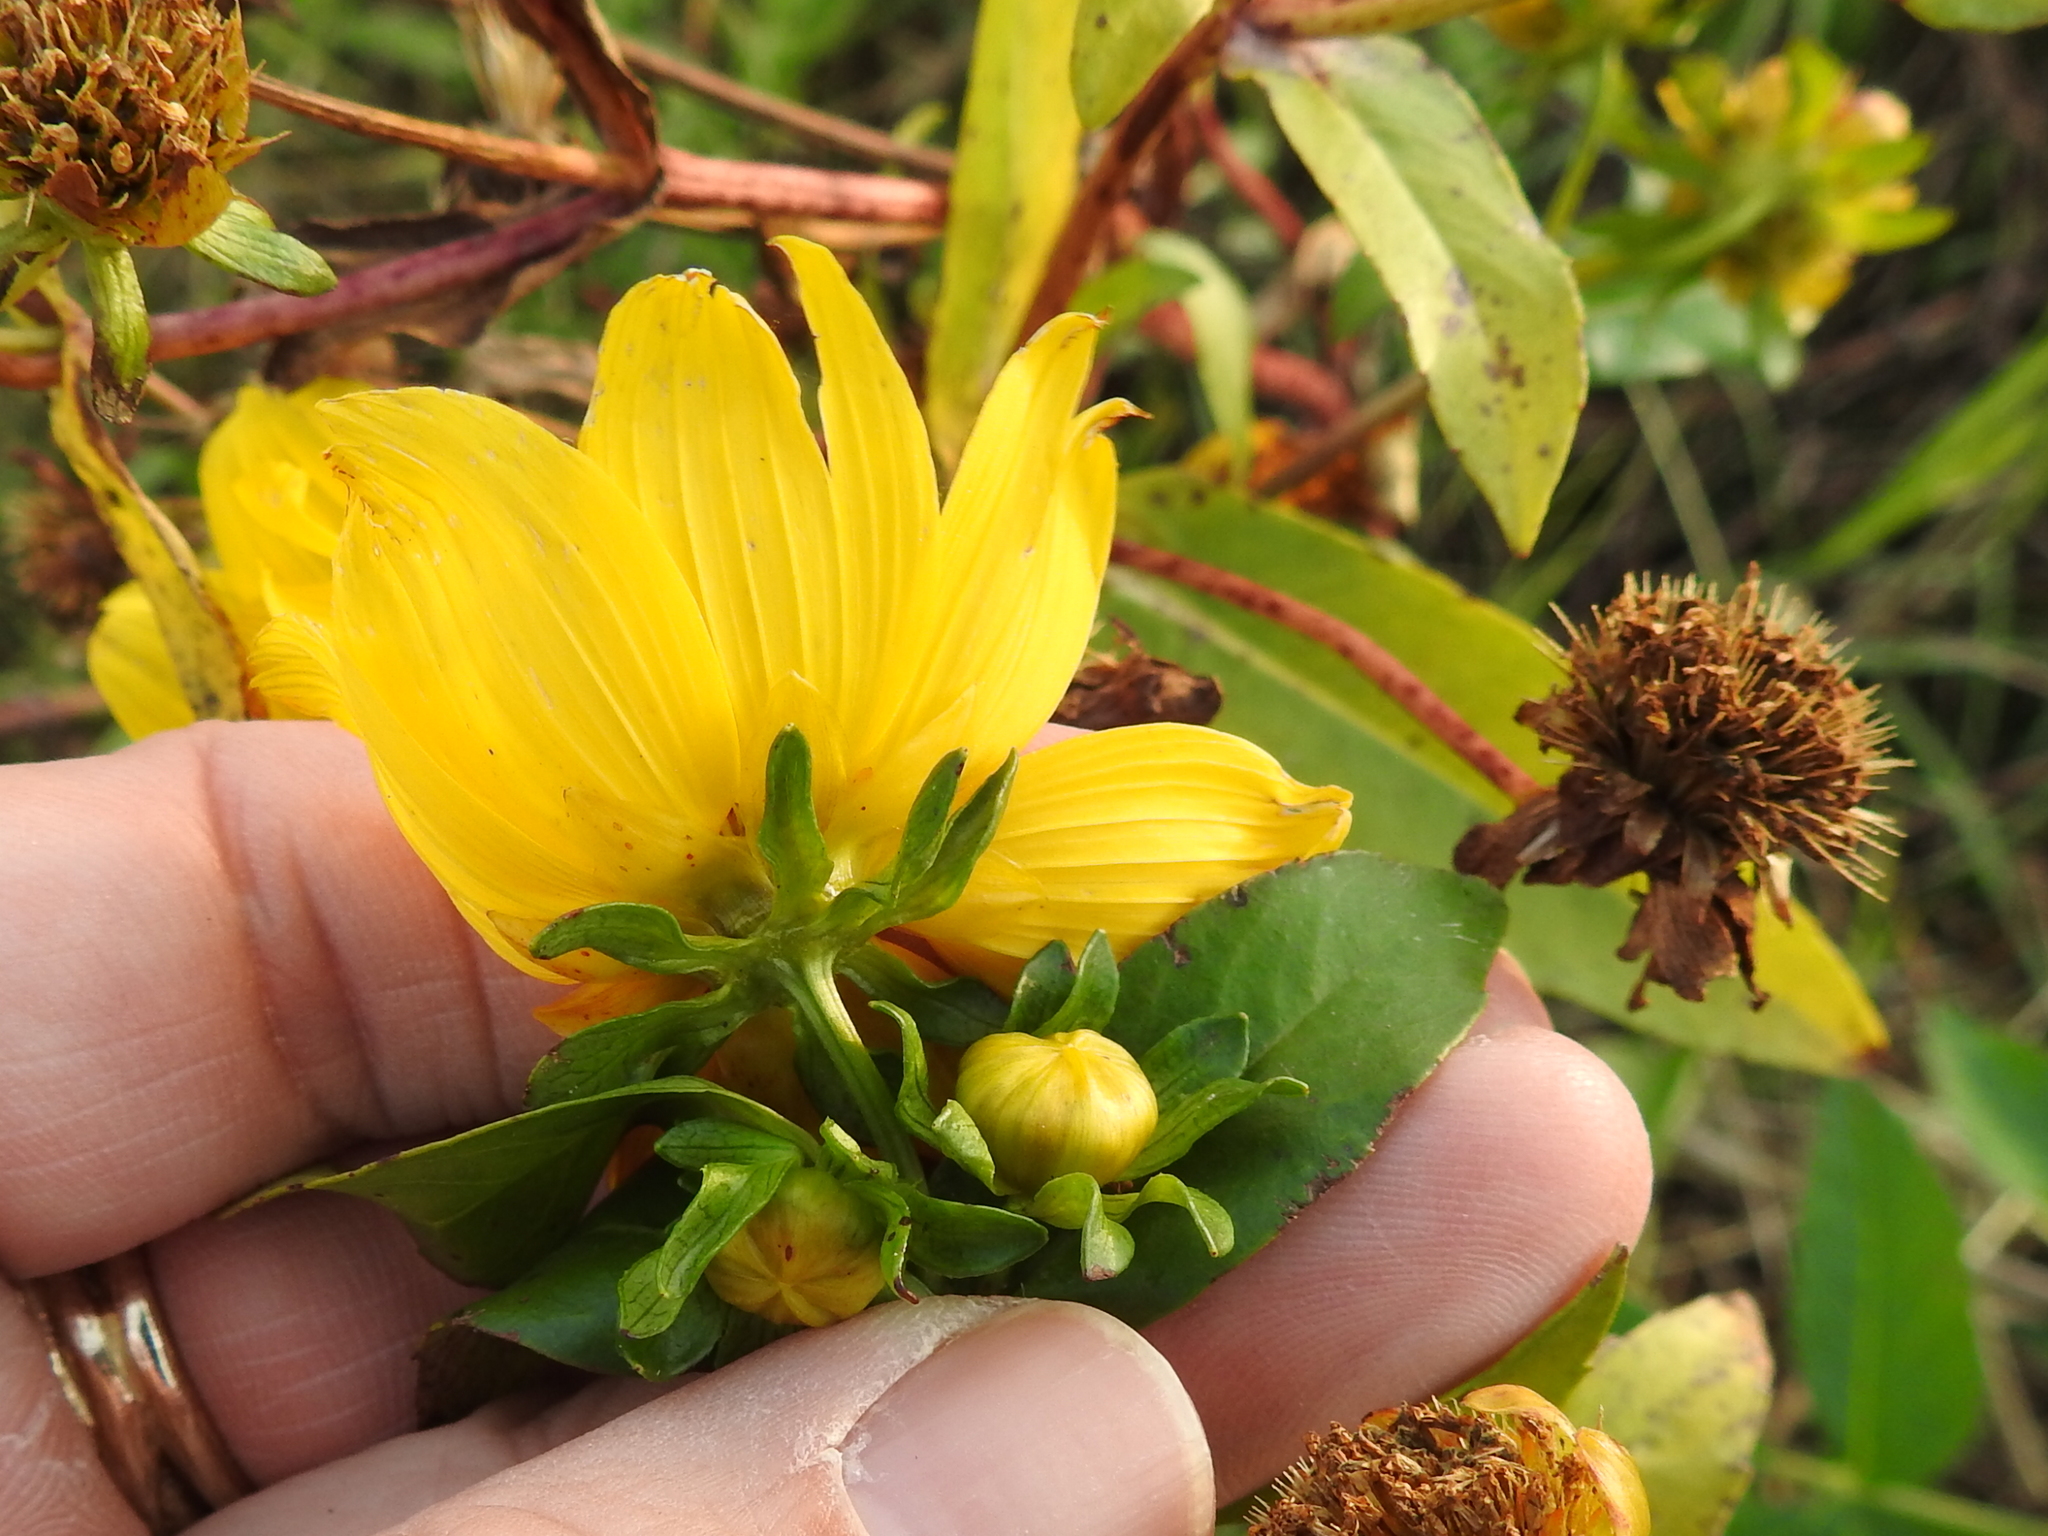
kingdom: Plantae
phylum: Tracheophyta
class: Magnoliopsida
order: Asterales
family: Asteraceae
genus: Bidens
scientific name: Bidens laevis
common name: Larger bur-marigold
